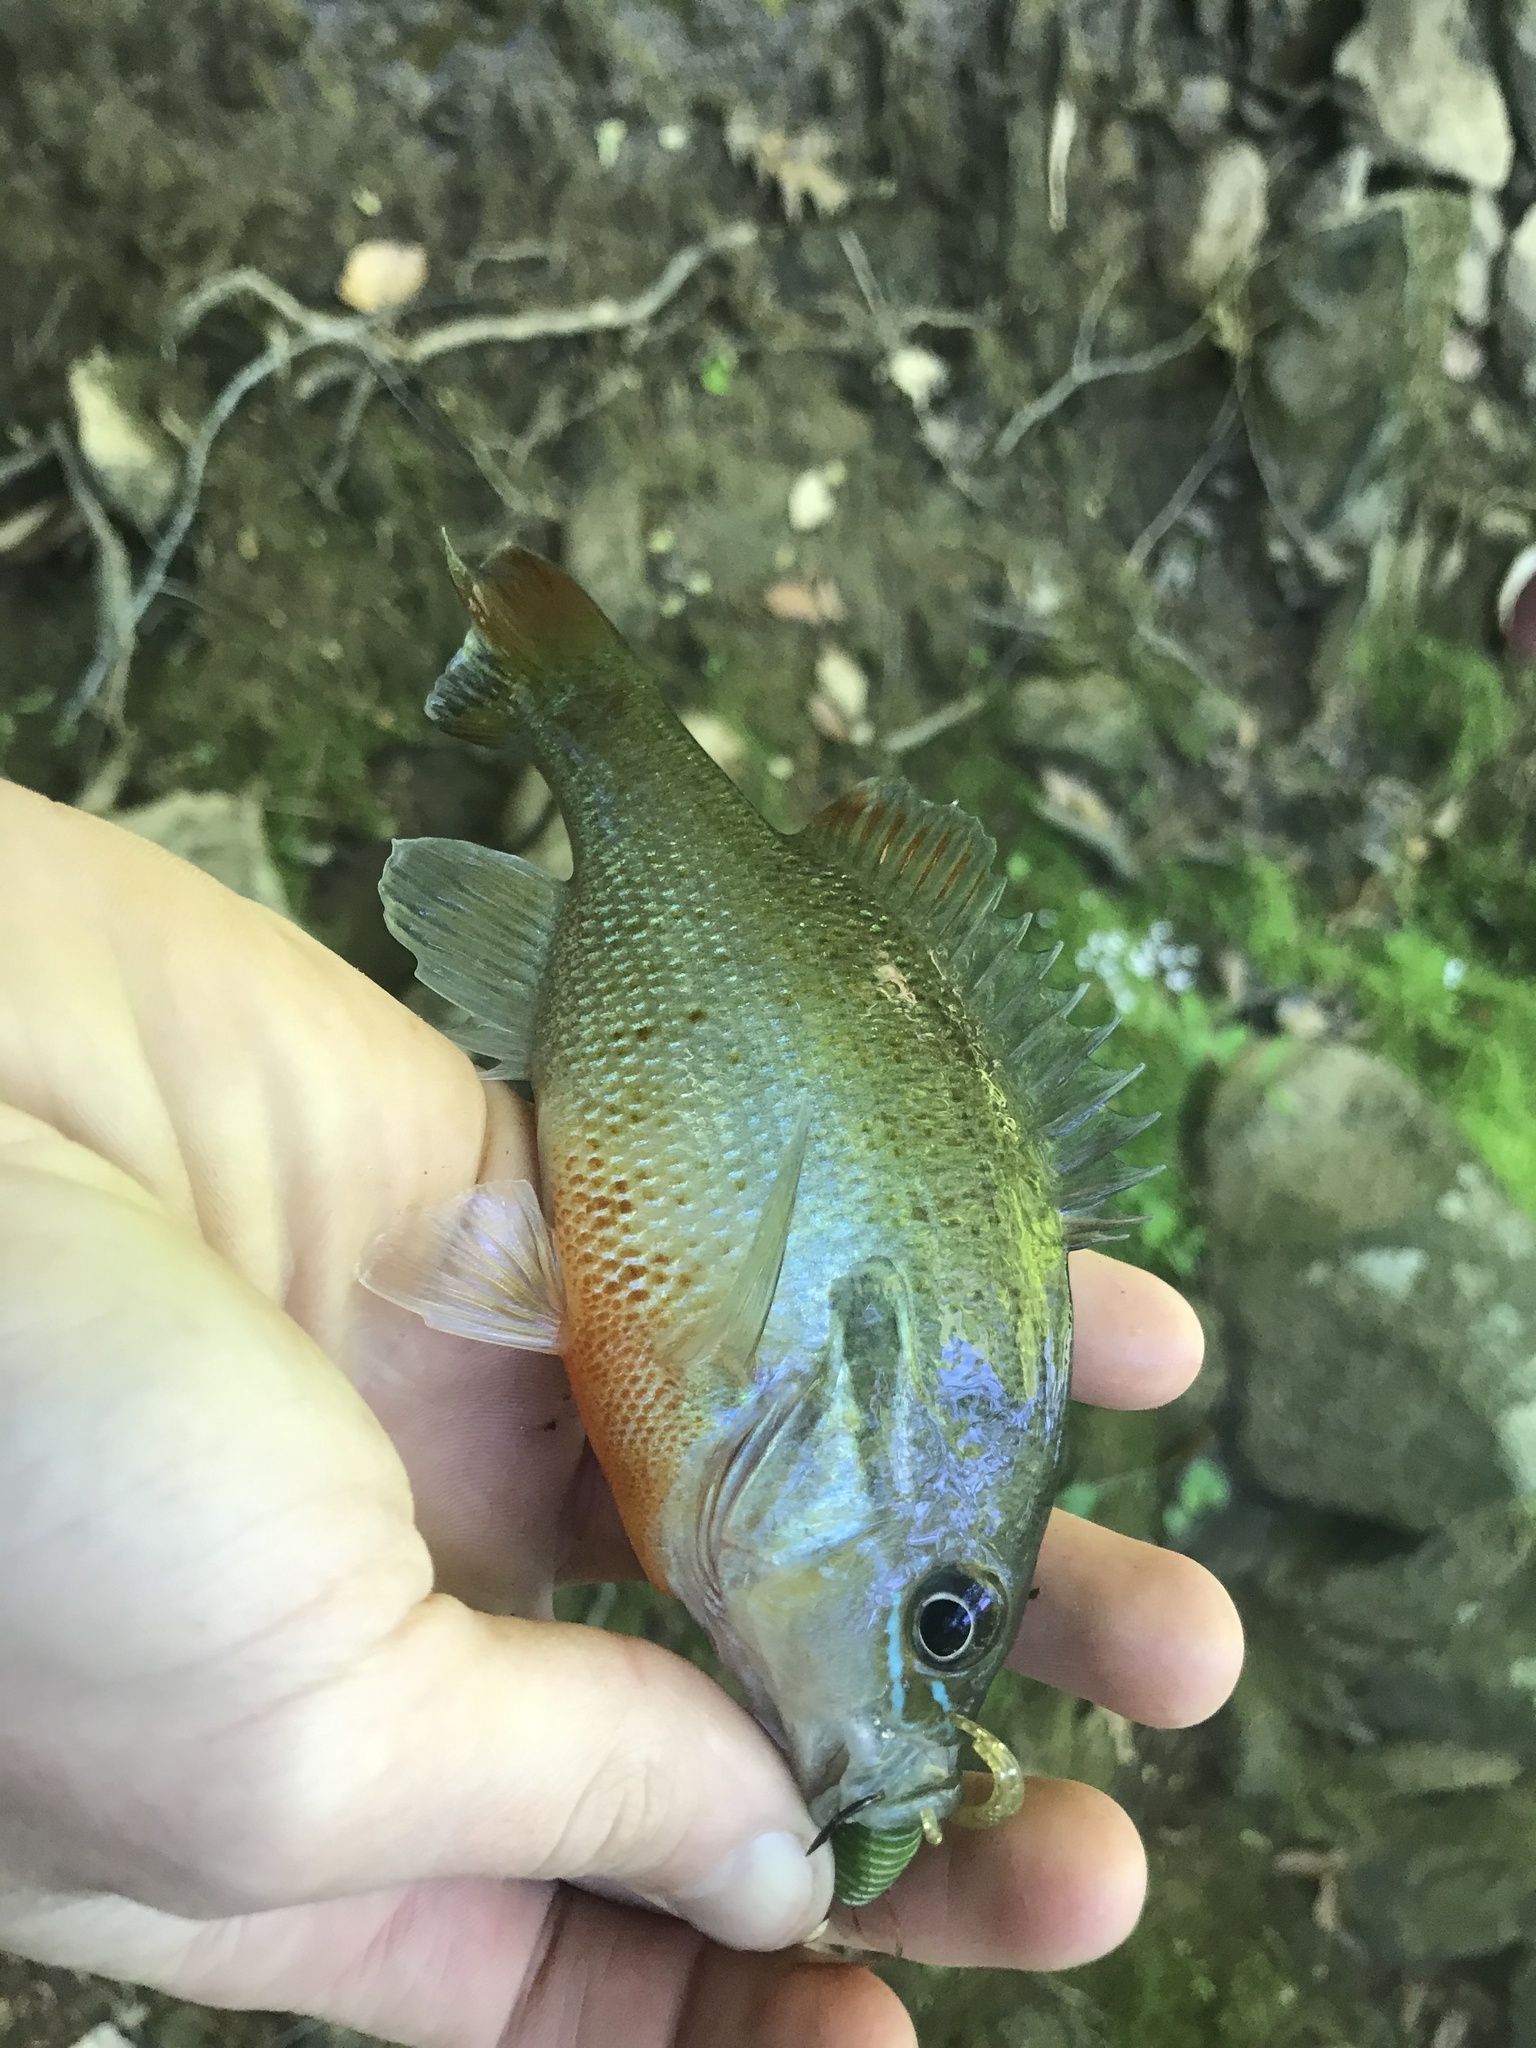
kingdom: Animalia
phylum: Chordata
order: Perciformes
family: Centrarchidae
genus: Lepomis
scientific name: Lepomis auritus
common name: Redbreast sunfish
